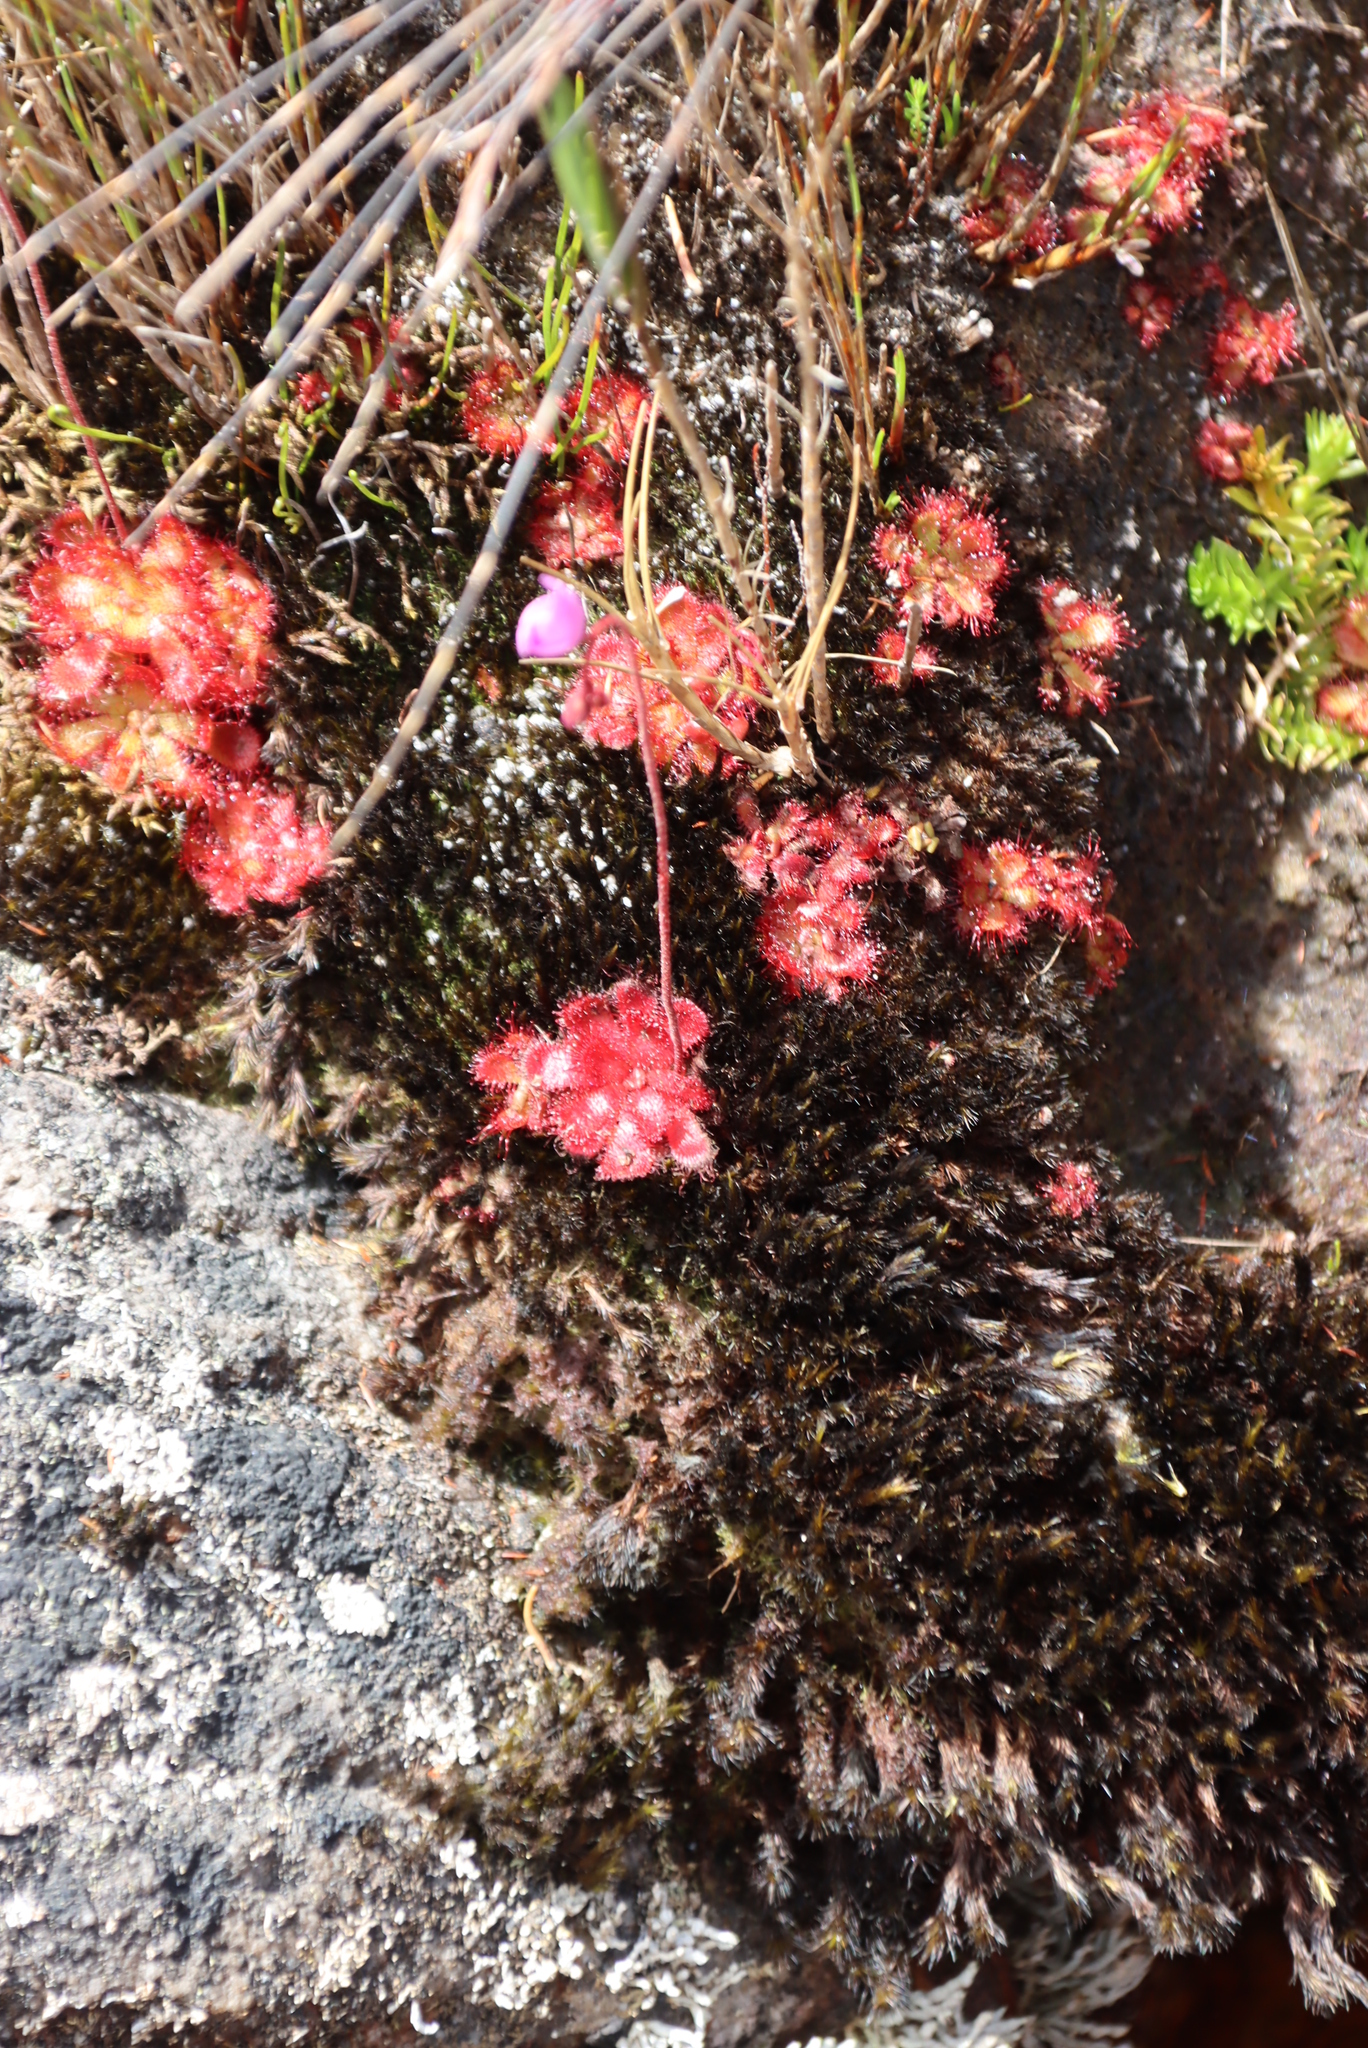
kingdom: Plantae
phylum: Tracheophyta
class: Magnoliopsida
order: Caryophyllales
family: Droseraceae
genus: Drosera
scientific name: Drosera aliciae
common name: Alice sundew
